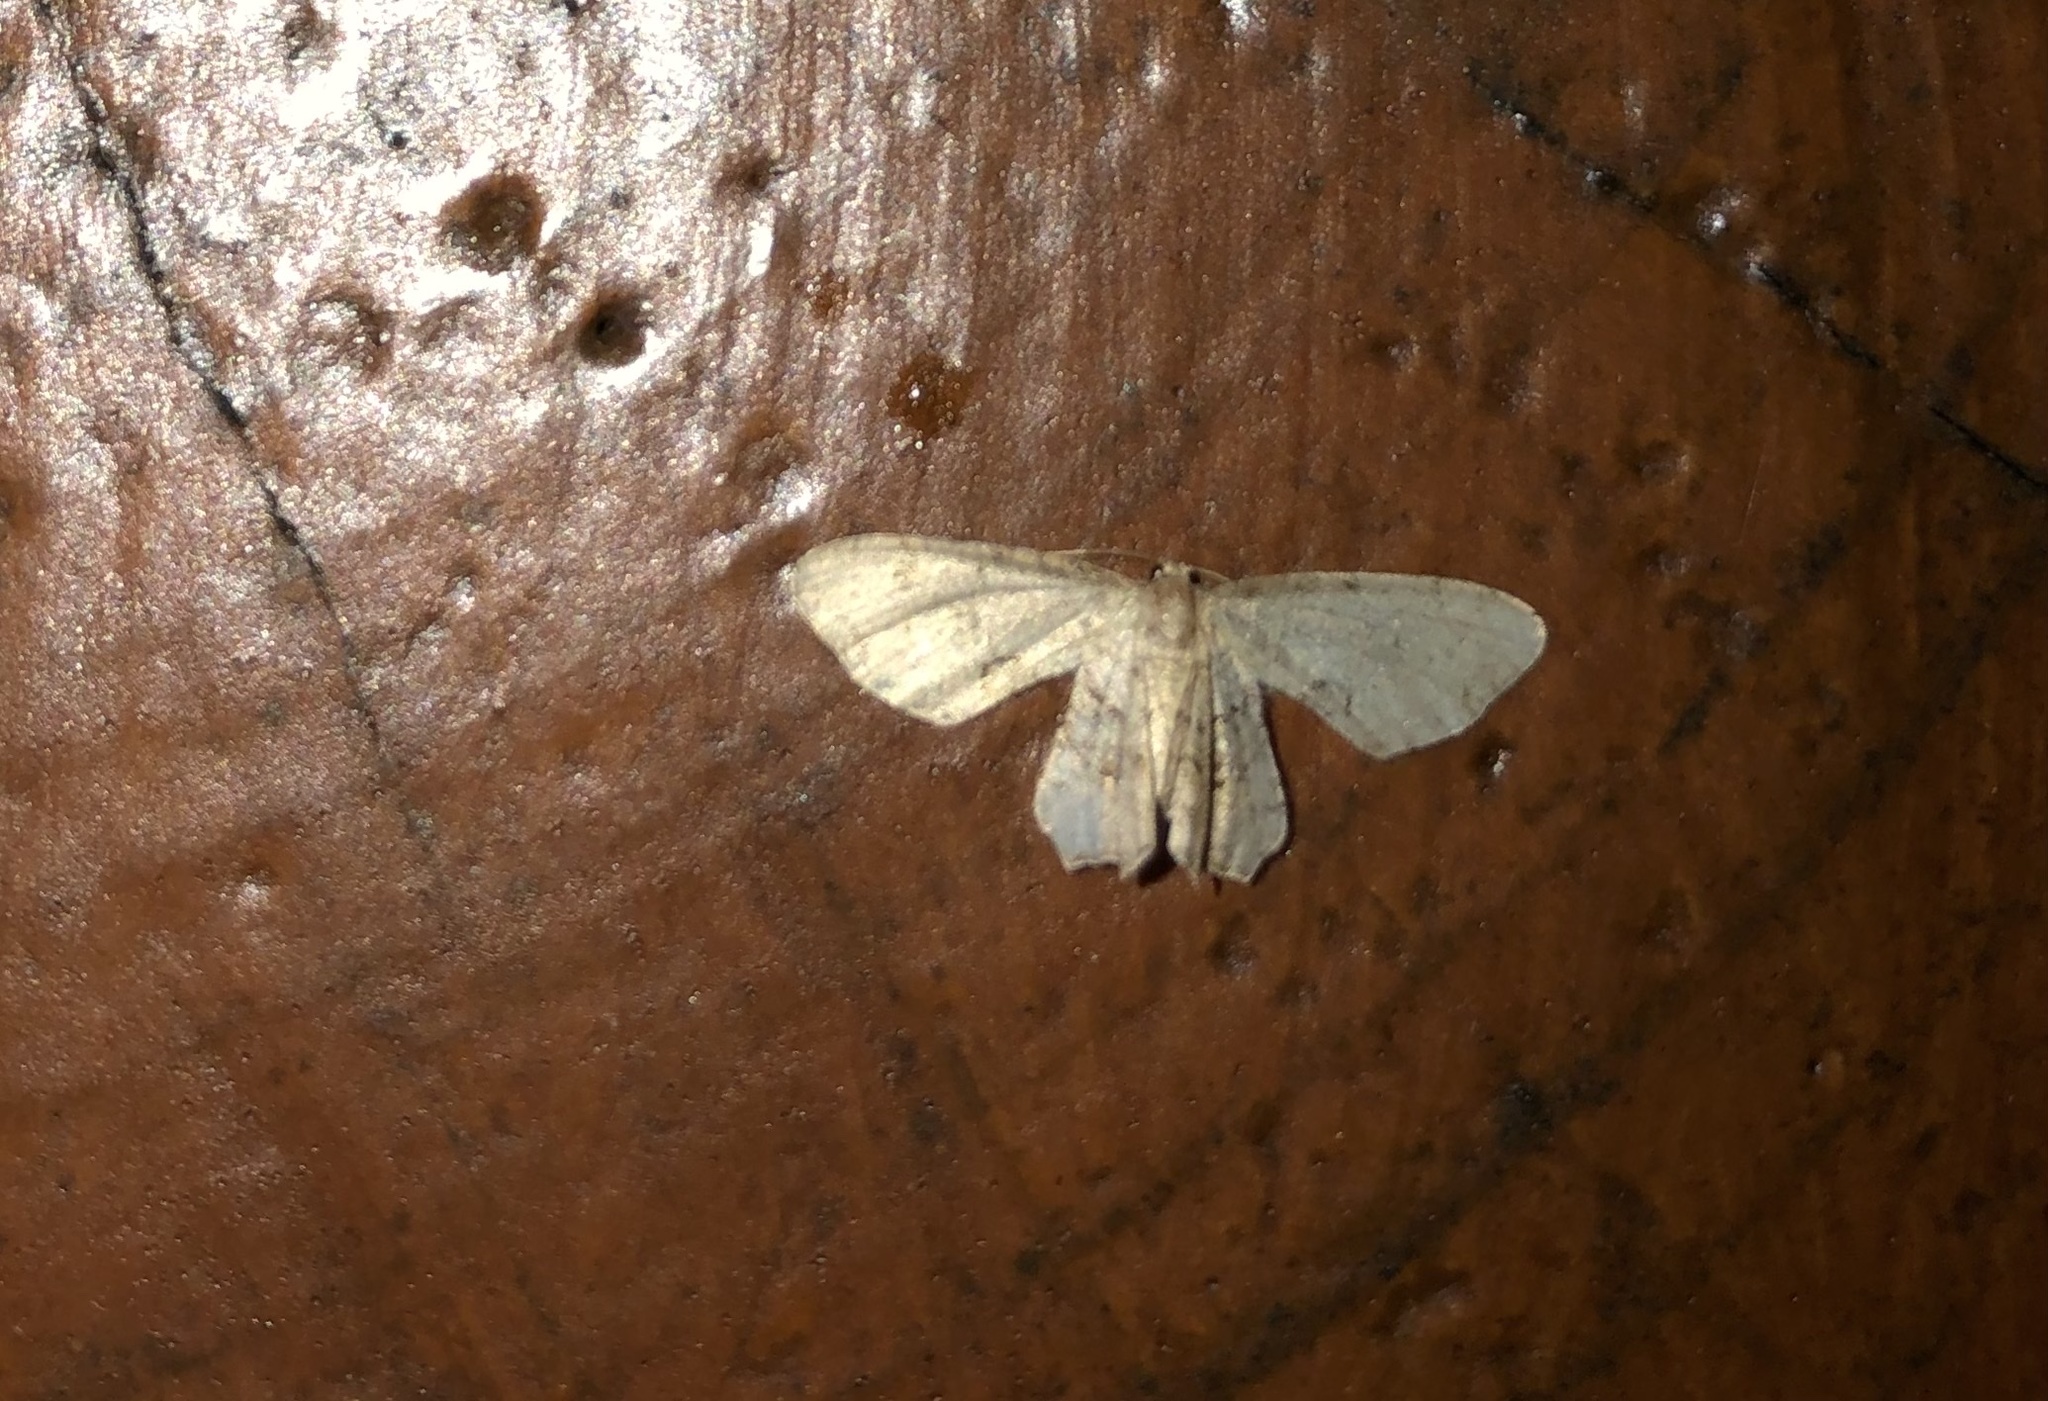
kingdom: Animalia
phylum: Arthropoda
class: Insecta
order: Lepidoptera
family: Uraniidae
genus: Epiplema
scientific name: Epiplema Callizzia amorata
